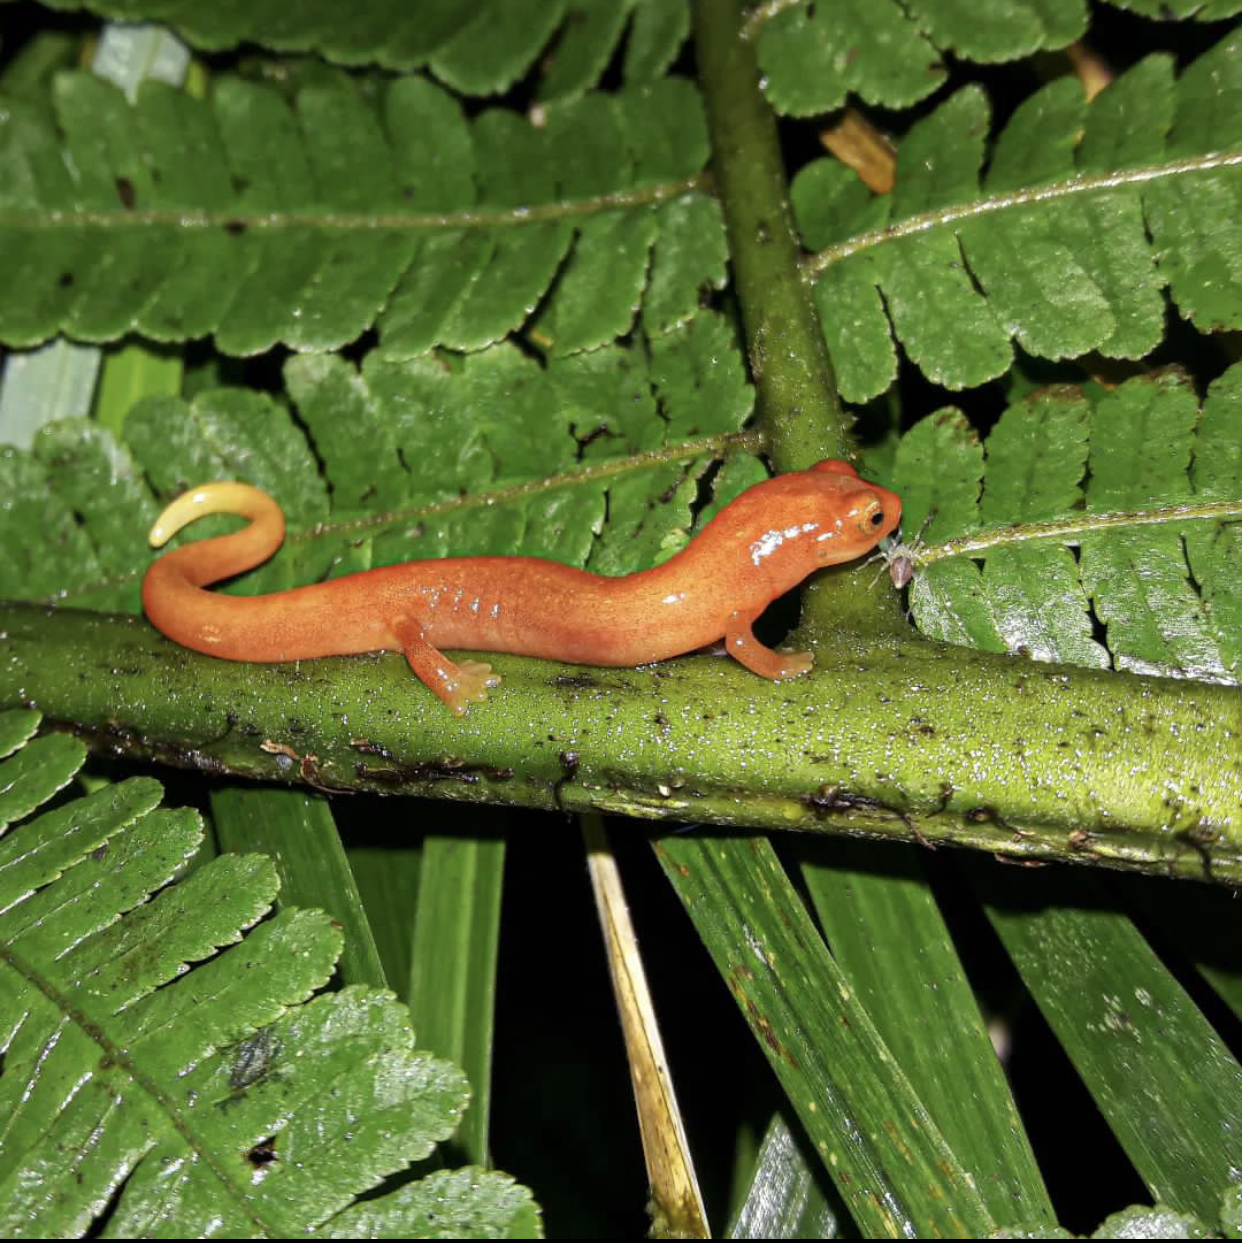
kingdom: Animalia
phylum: Chordata
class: Amphibia
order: Caudata
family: Plethodontidae
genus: Bolitoglossa
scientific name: Bolitoglossa cathyledecae
